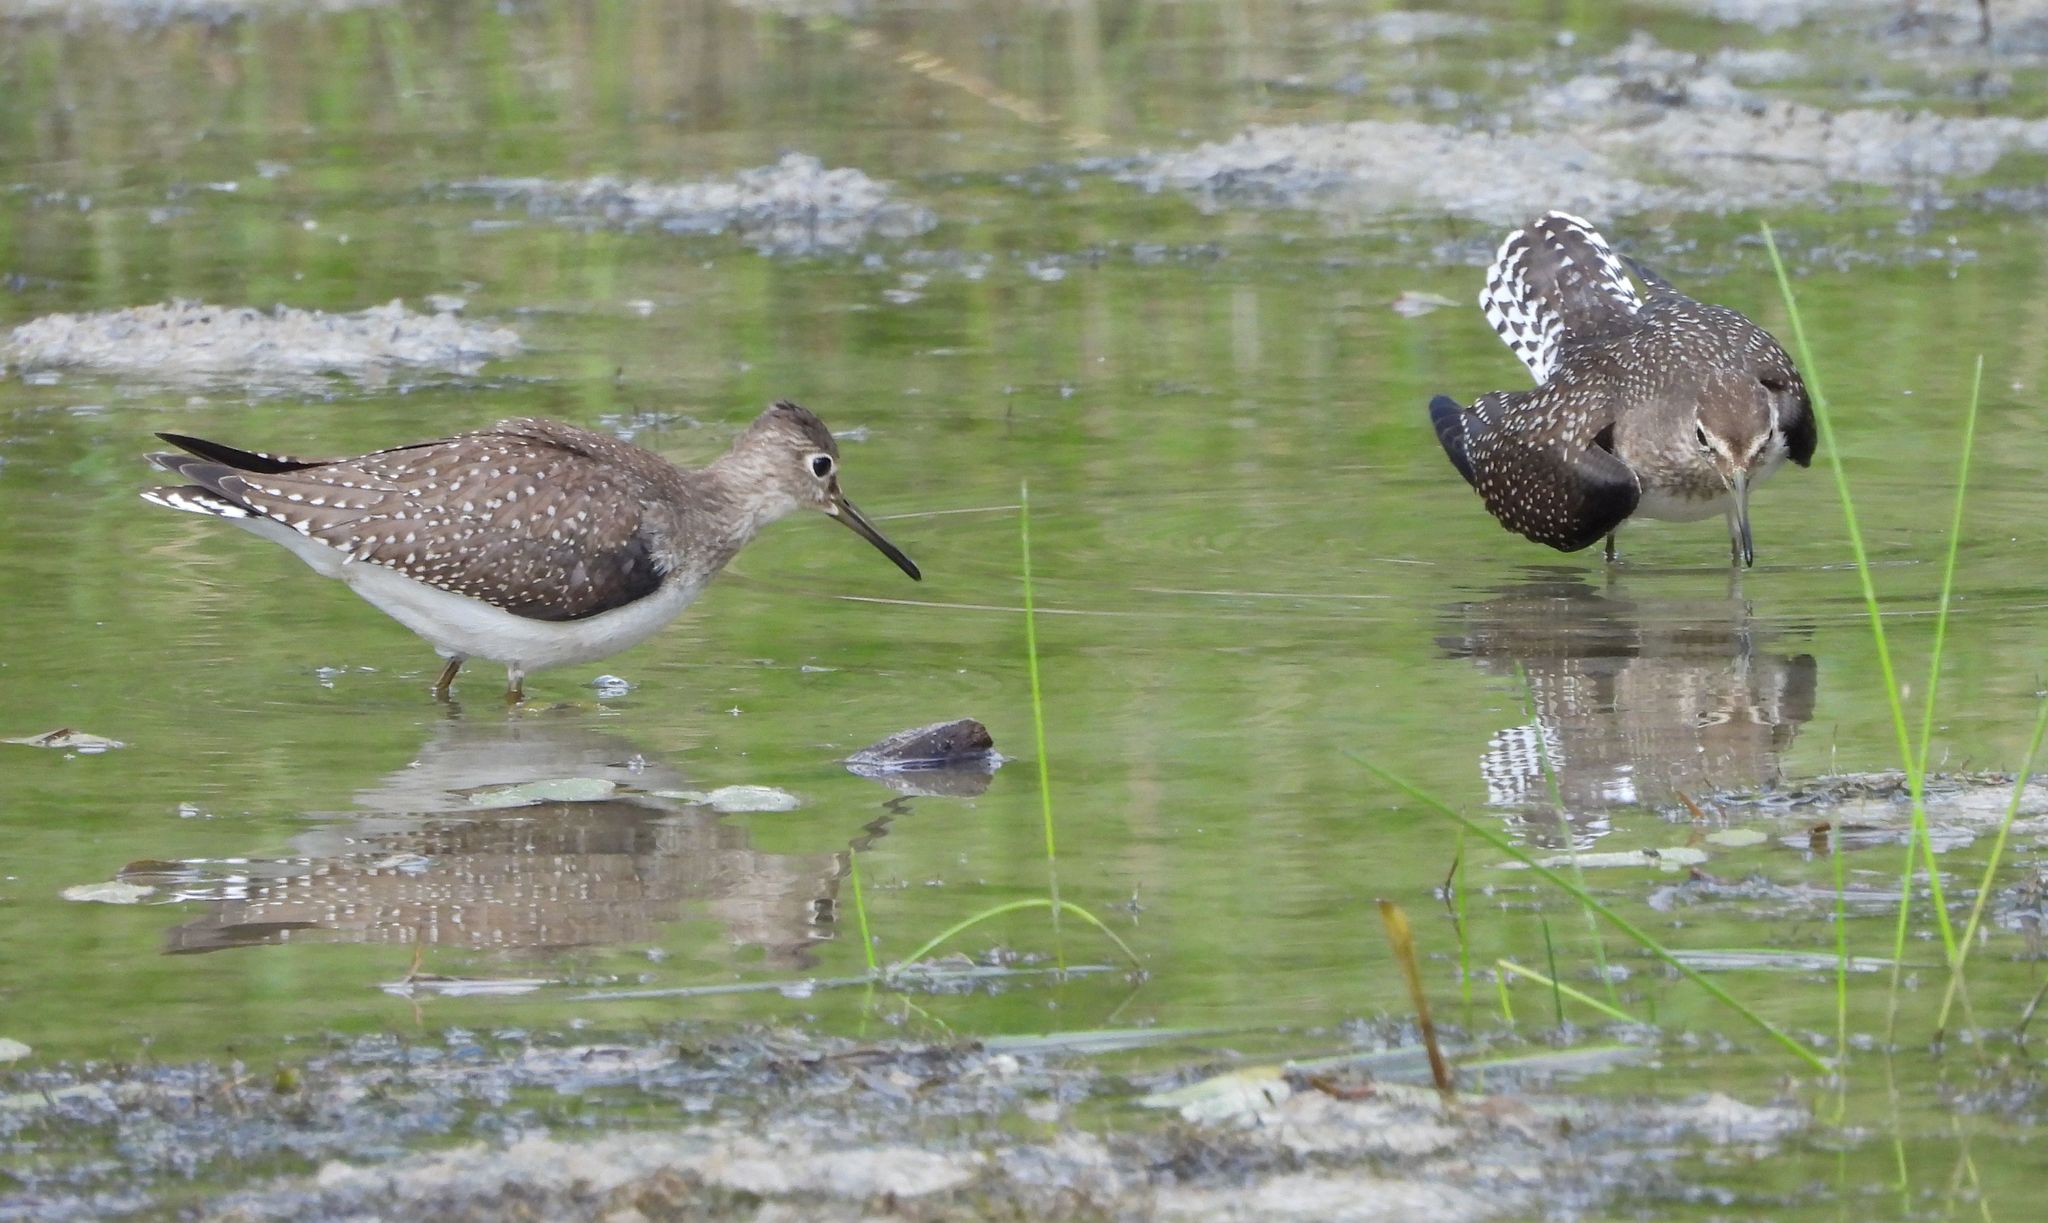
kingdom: Animalia
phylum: Chordata
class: Aves
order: Charadriiformes
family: Scolopacidae
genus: Tringa
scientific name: Tringa solitaria
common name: Solitary sandpiper
